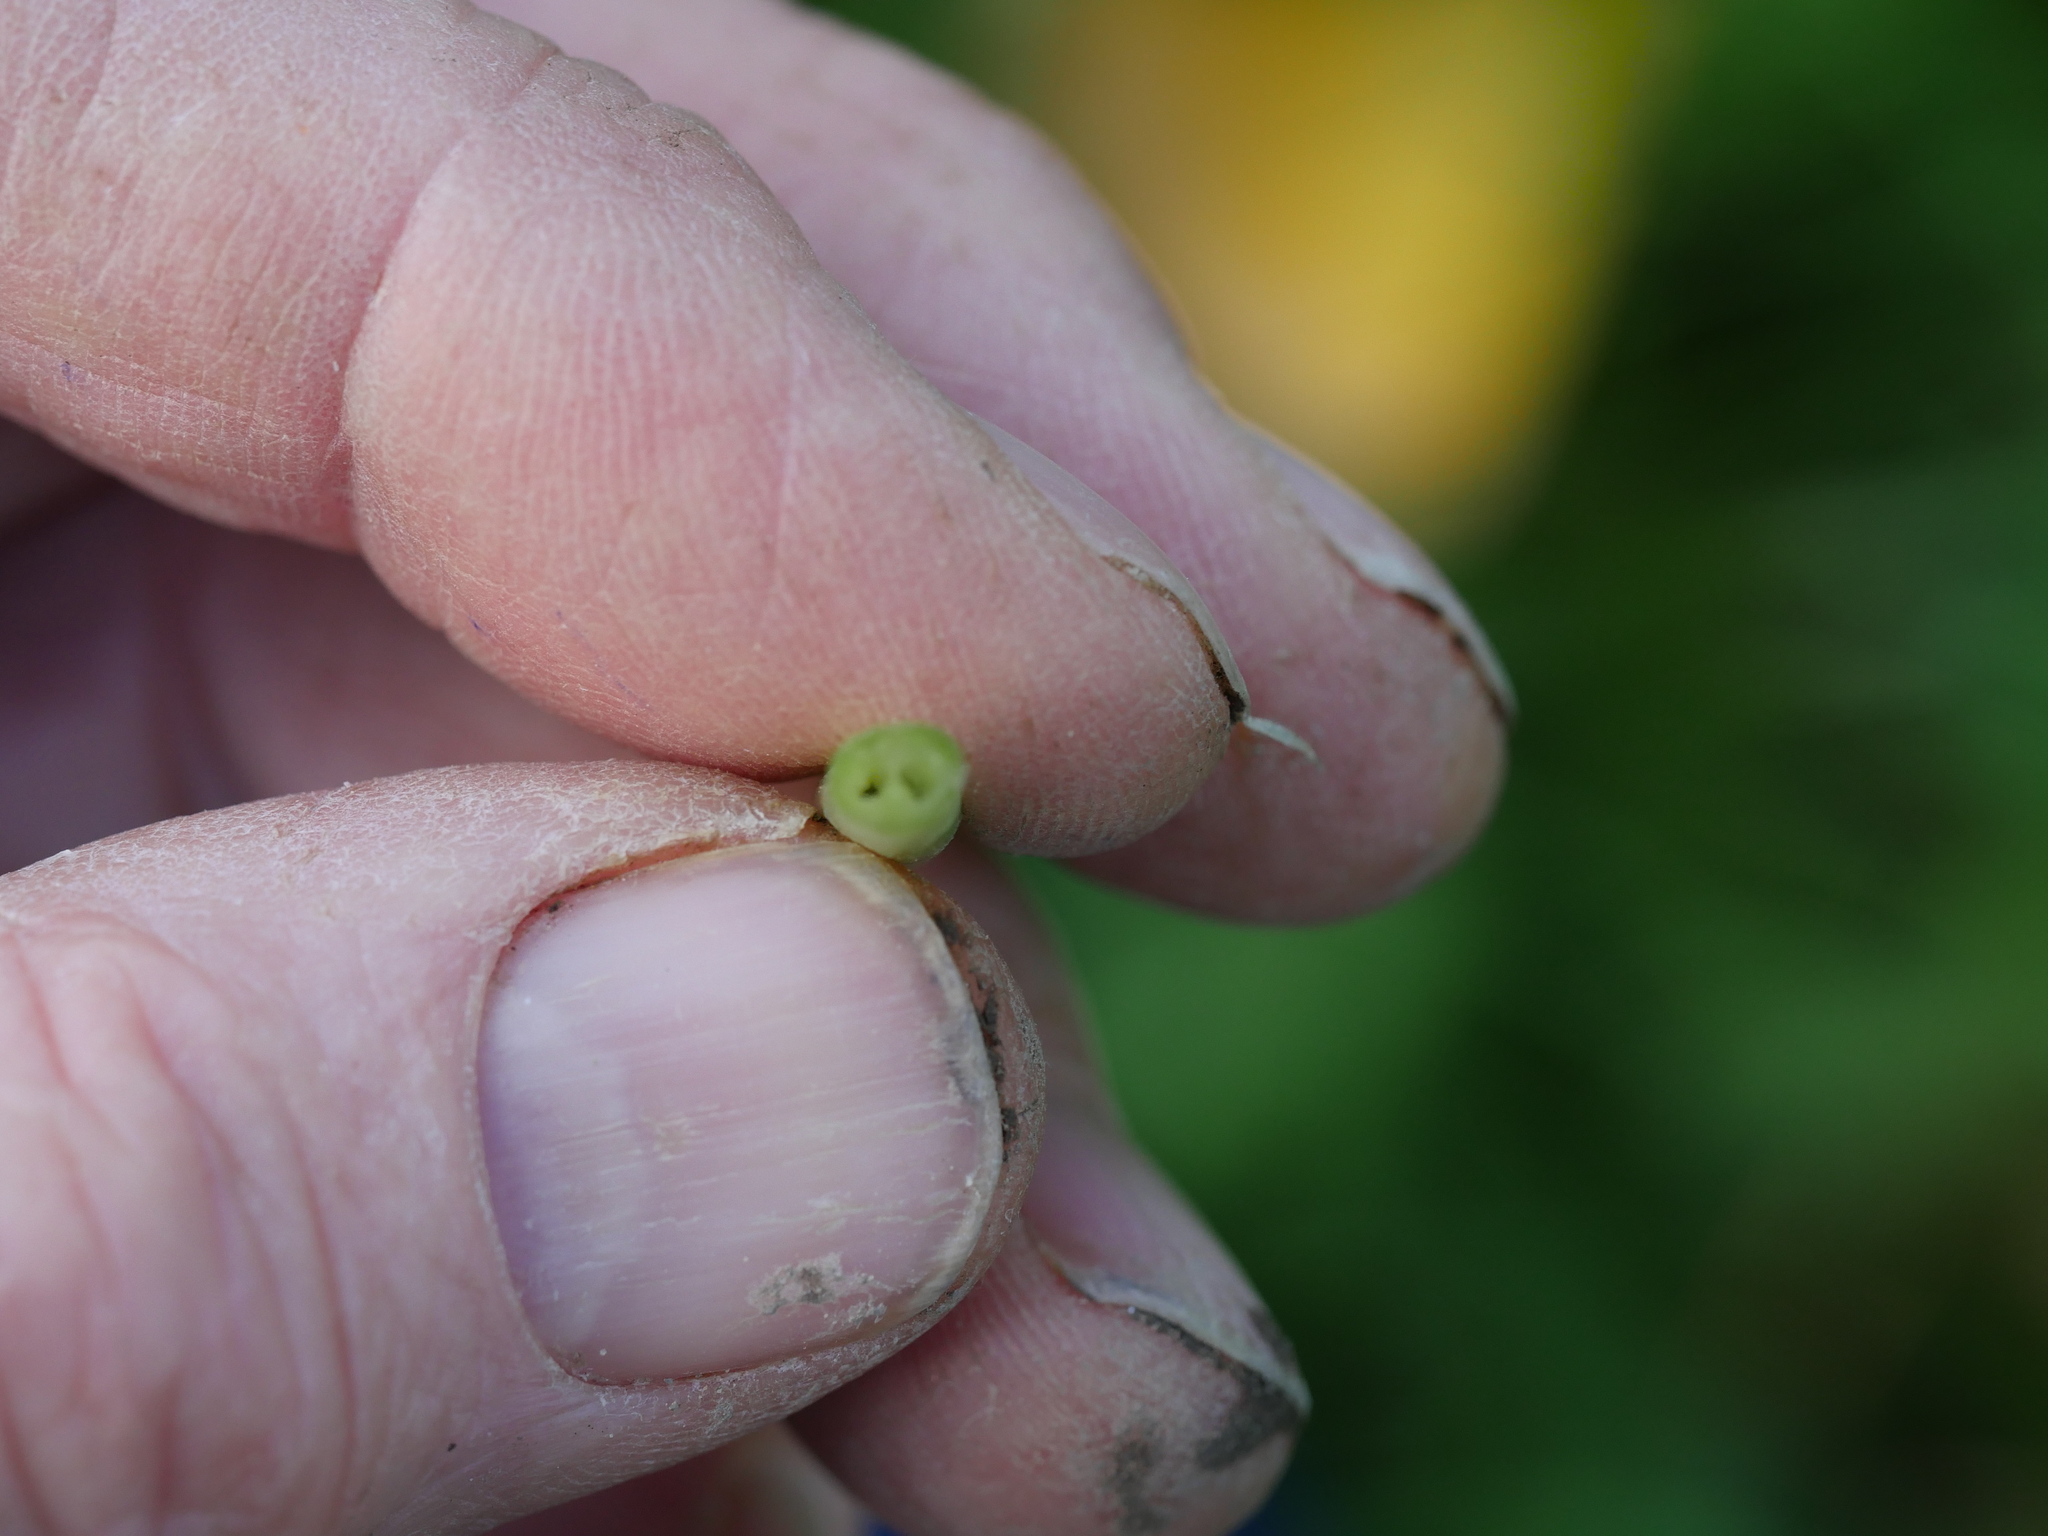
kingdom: Plantae
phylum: Tracheophyta
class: Magnoliopsida
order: Ranunculales
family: Ranunculaceae
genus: Ficaria
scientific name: Ficaria grandiflora
